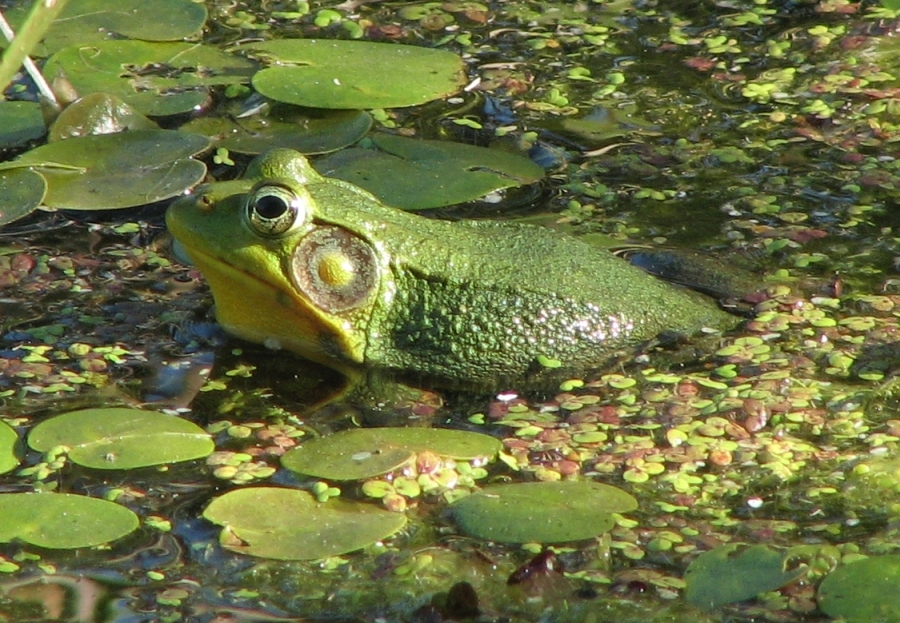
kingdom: Animalia
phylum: Chordata
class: Amphibia
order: Anura
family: Ranidae
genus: Lithobates
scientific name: Lithobates clamitans
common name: Green frog
